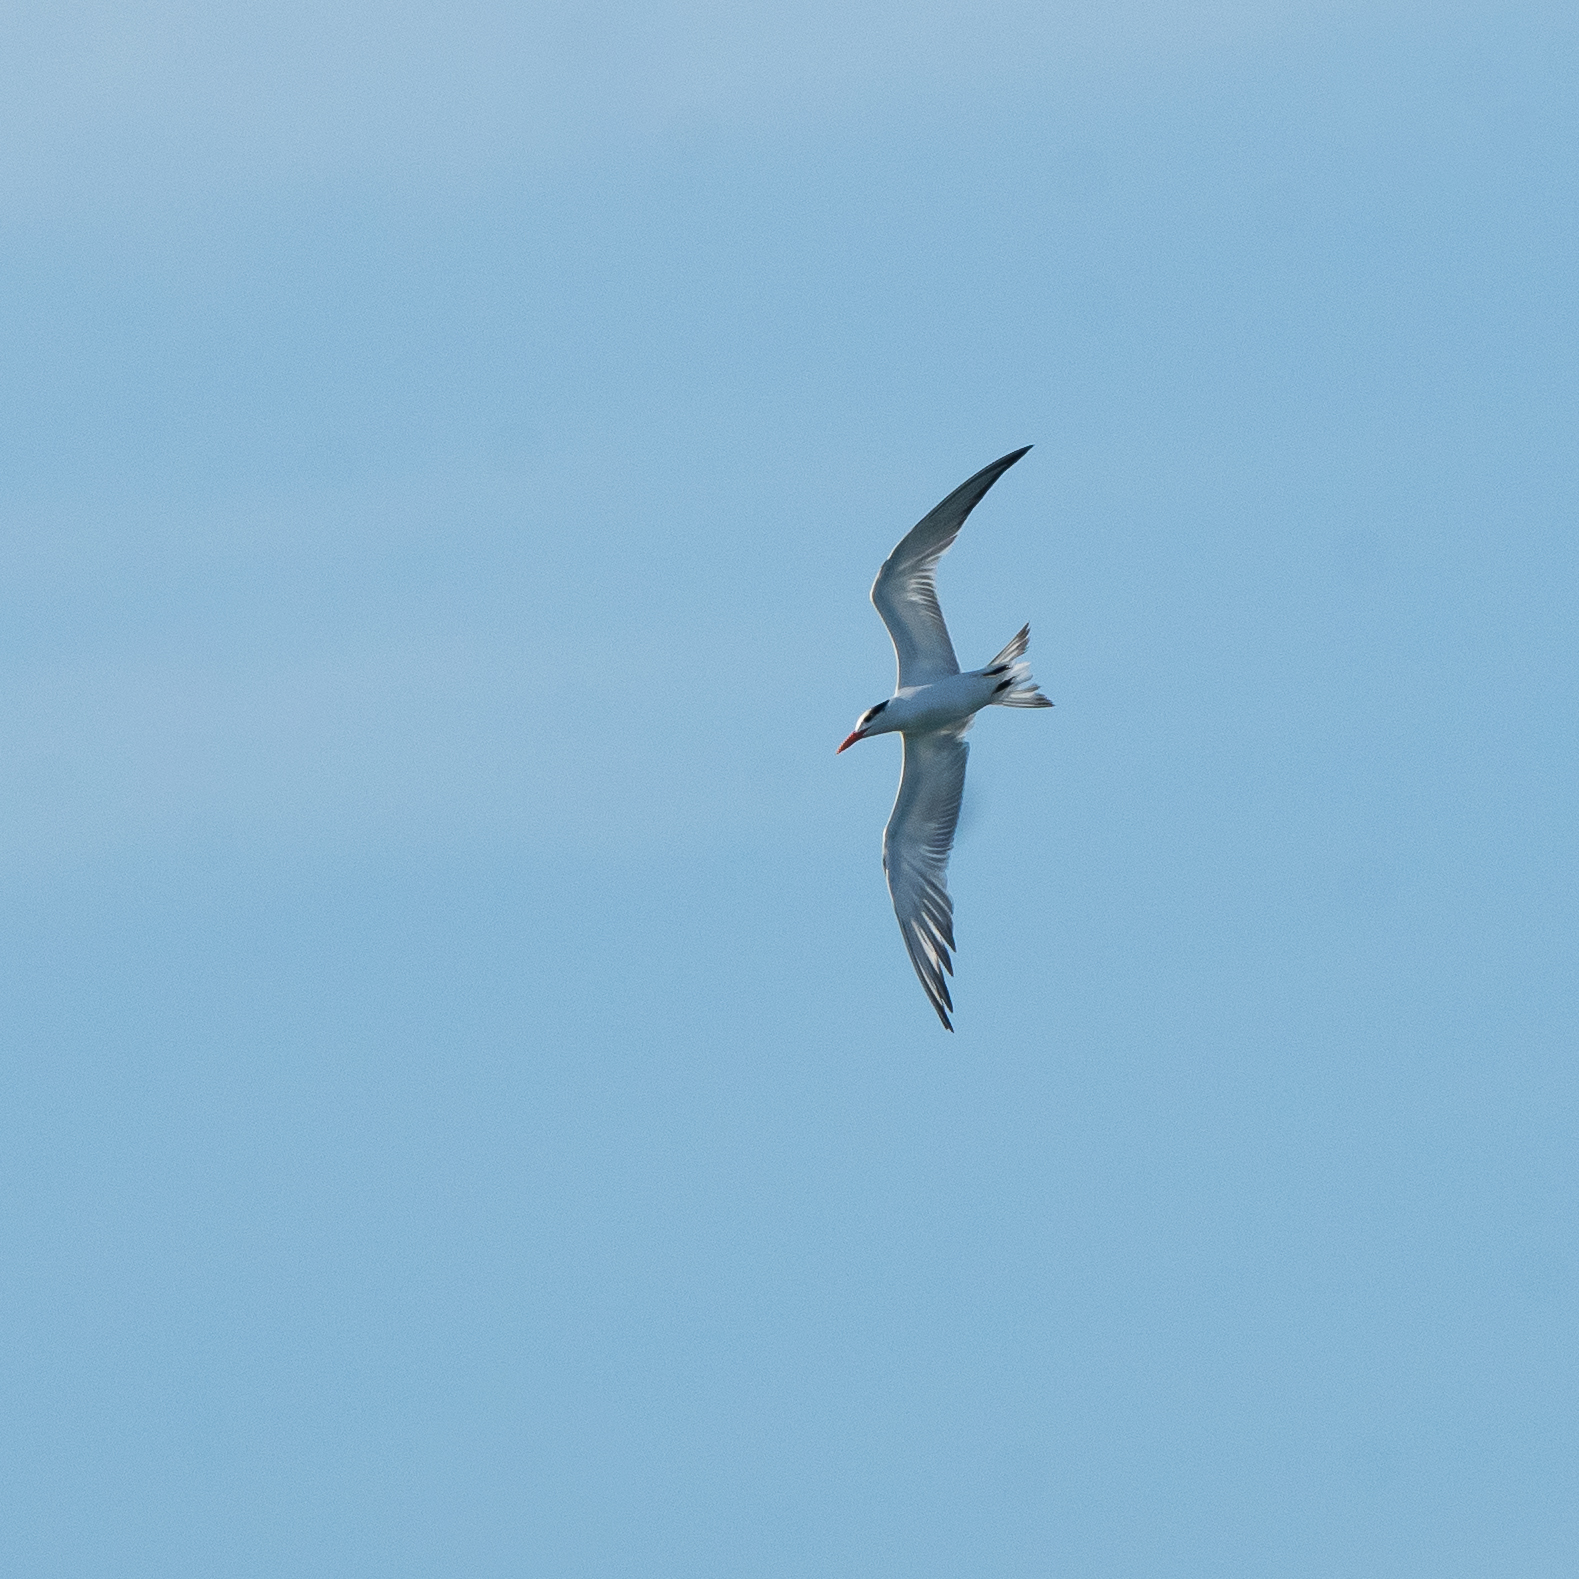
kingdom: Animalia
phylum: Chordata
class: Aves
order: Charadriiformes
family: Laridae
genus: Thalasseus
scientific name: Thalasseus maximus
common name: Royal tern
